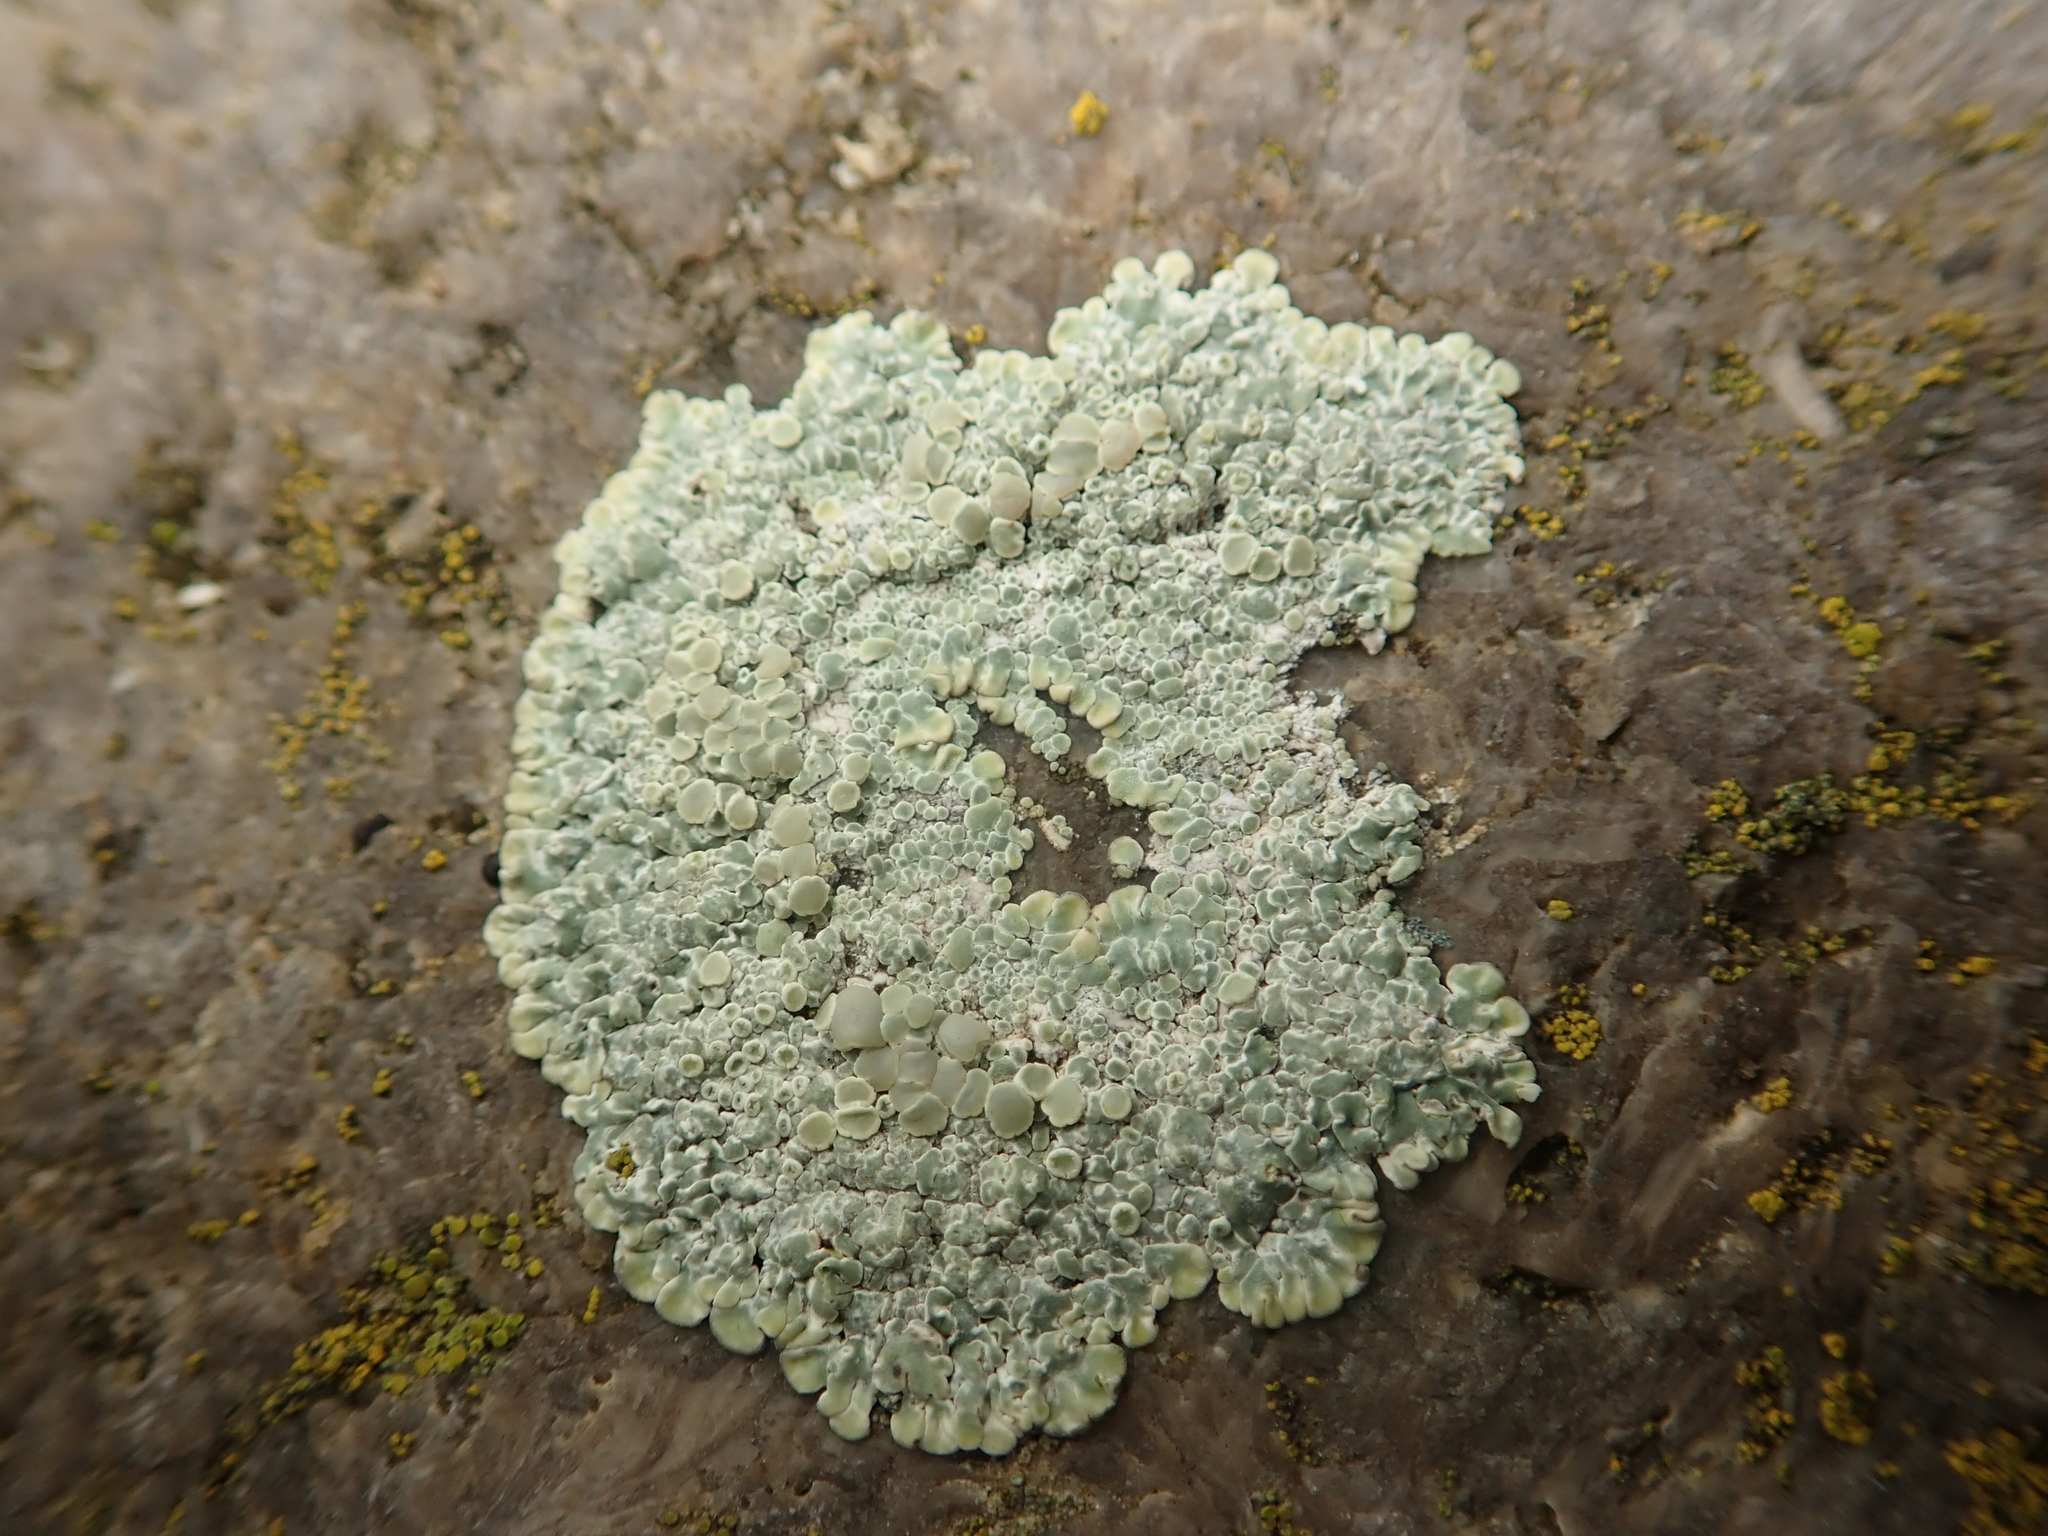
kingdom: Fungi
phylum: Ascomycota
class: Lecanoromycetes
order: Lecanorales
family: Lecanoraceae
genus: Protoparmeliopsis
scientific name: Protoparmeliopsis muralis
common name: Stonewall rim lichen
